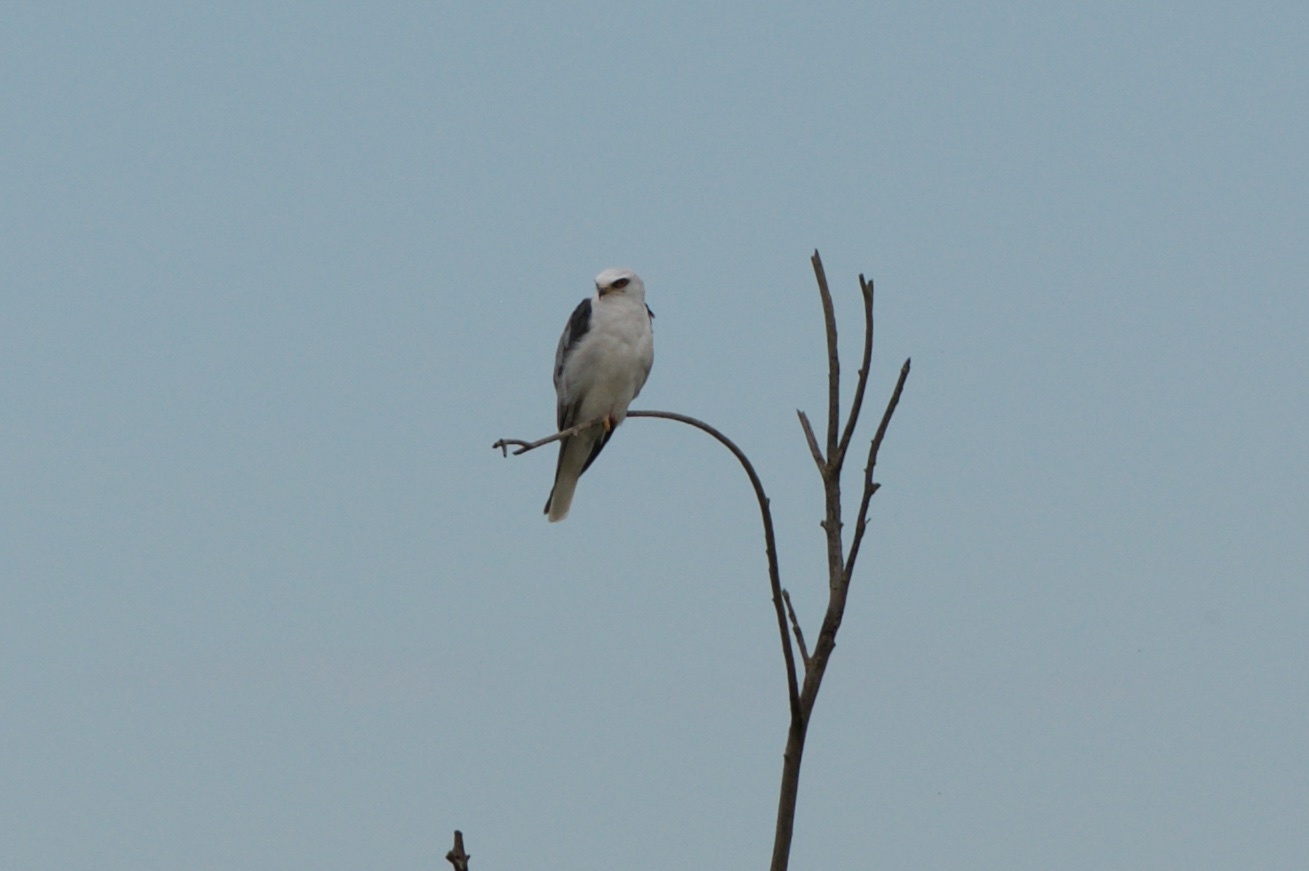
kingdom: Animalia
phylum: Chordata
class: Aves
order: Accipitriformes
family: Accipitridae
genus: Elanus
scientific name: Elanus leucurus
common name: White-tailed kite
